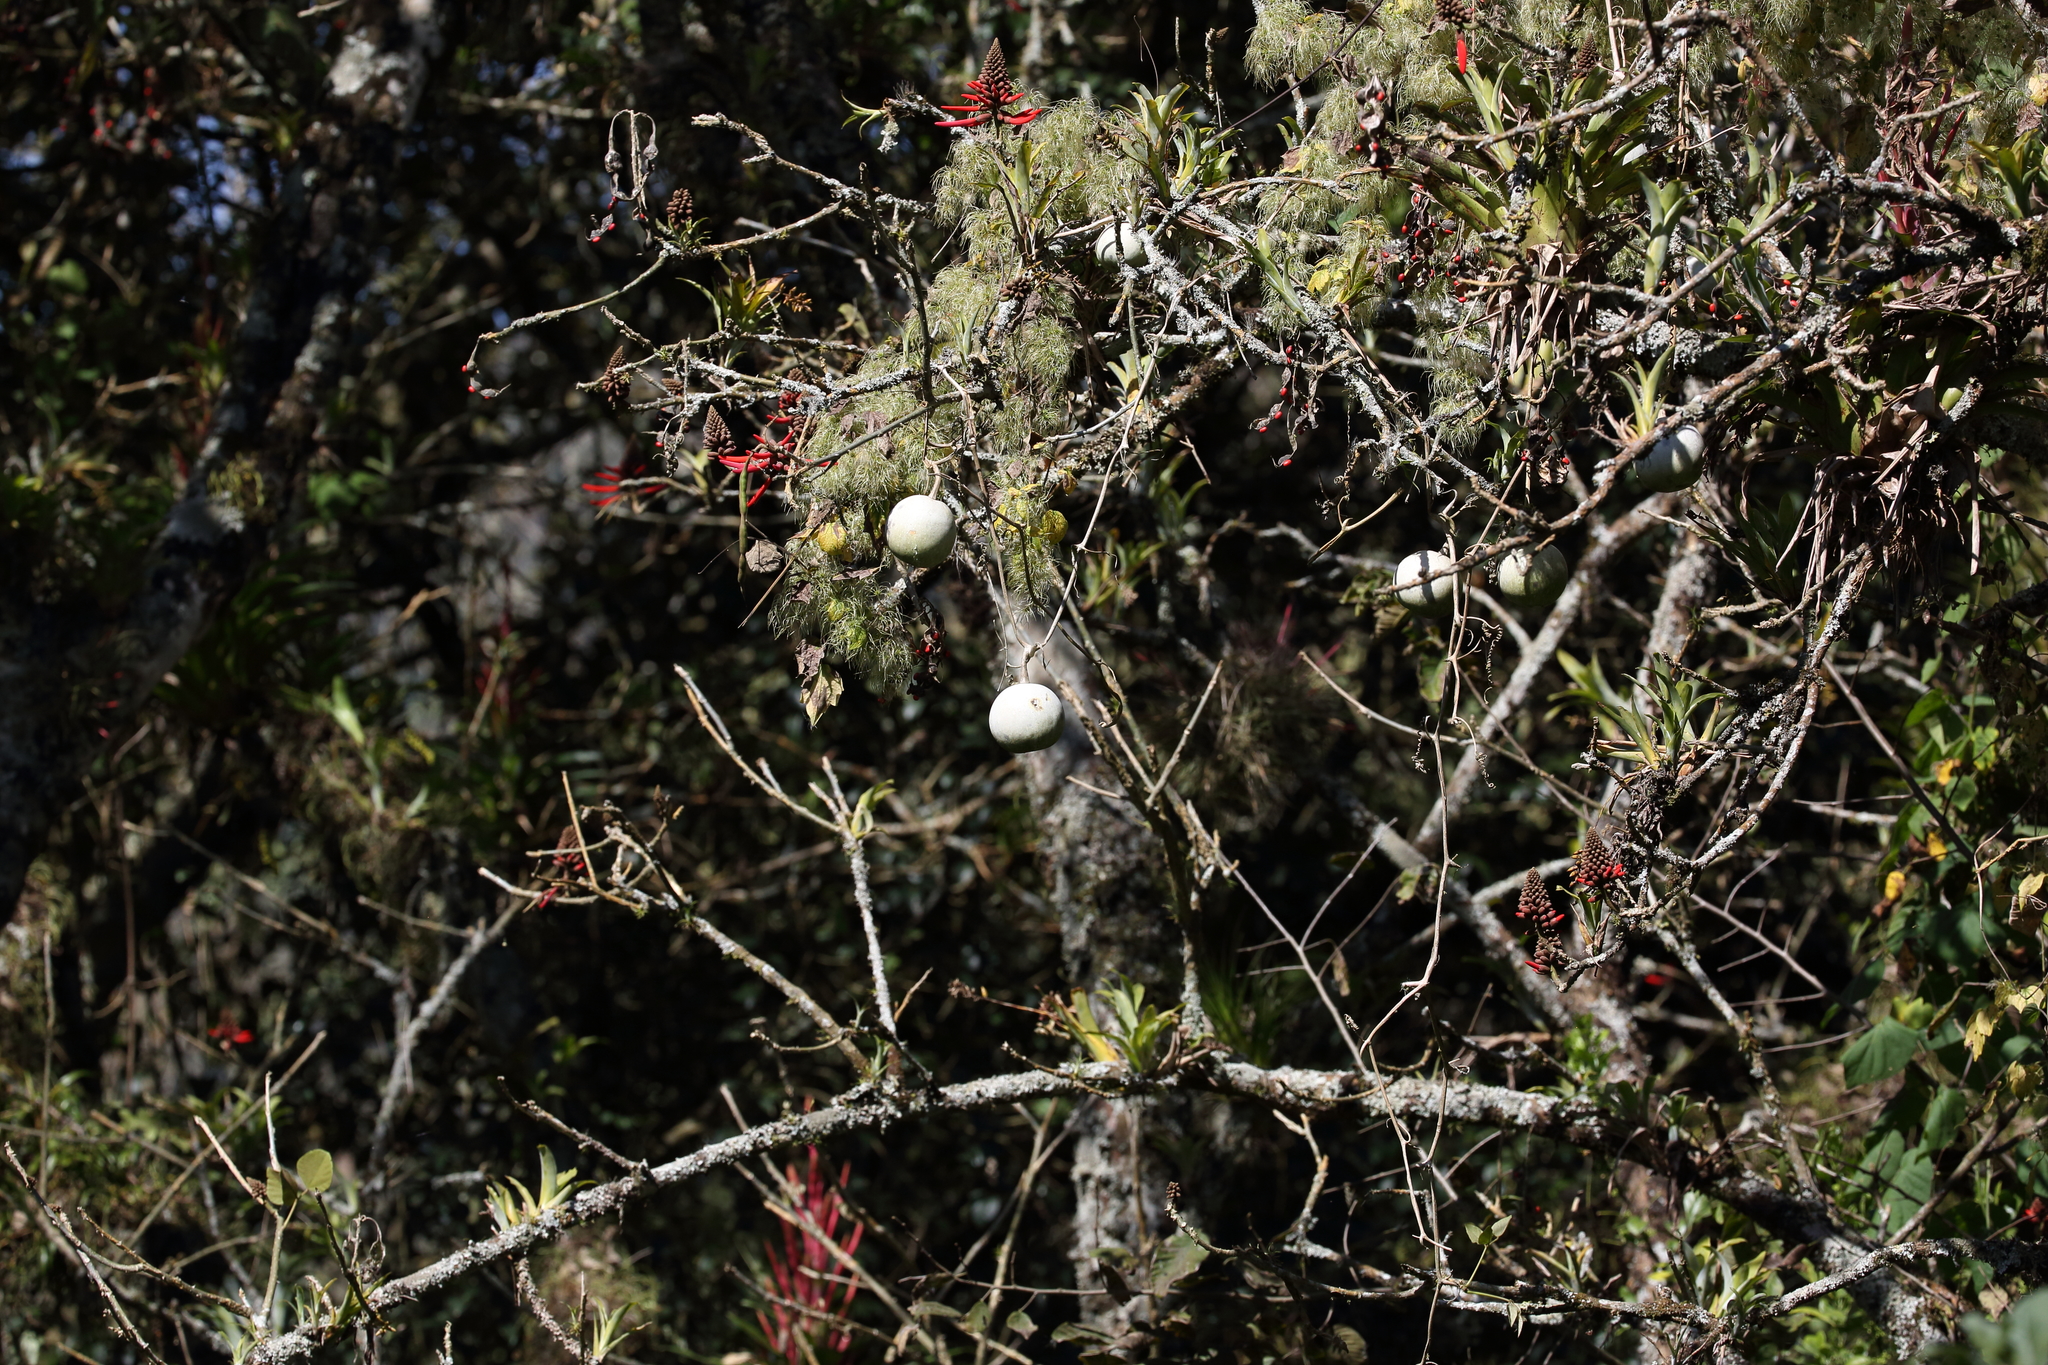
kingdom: Plantae
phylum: Tracheophyta
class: Magnoliopsida
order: Cucurbitales
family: Cucurbitaceae
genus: Cucurbita
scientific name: Cucurbita argyrosperma
